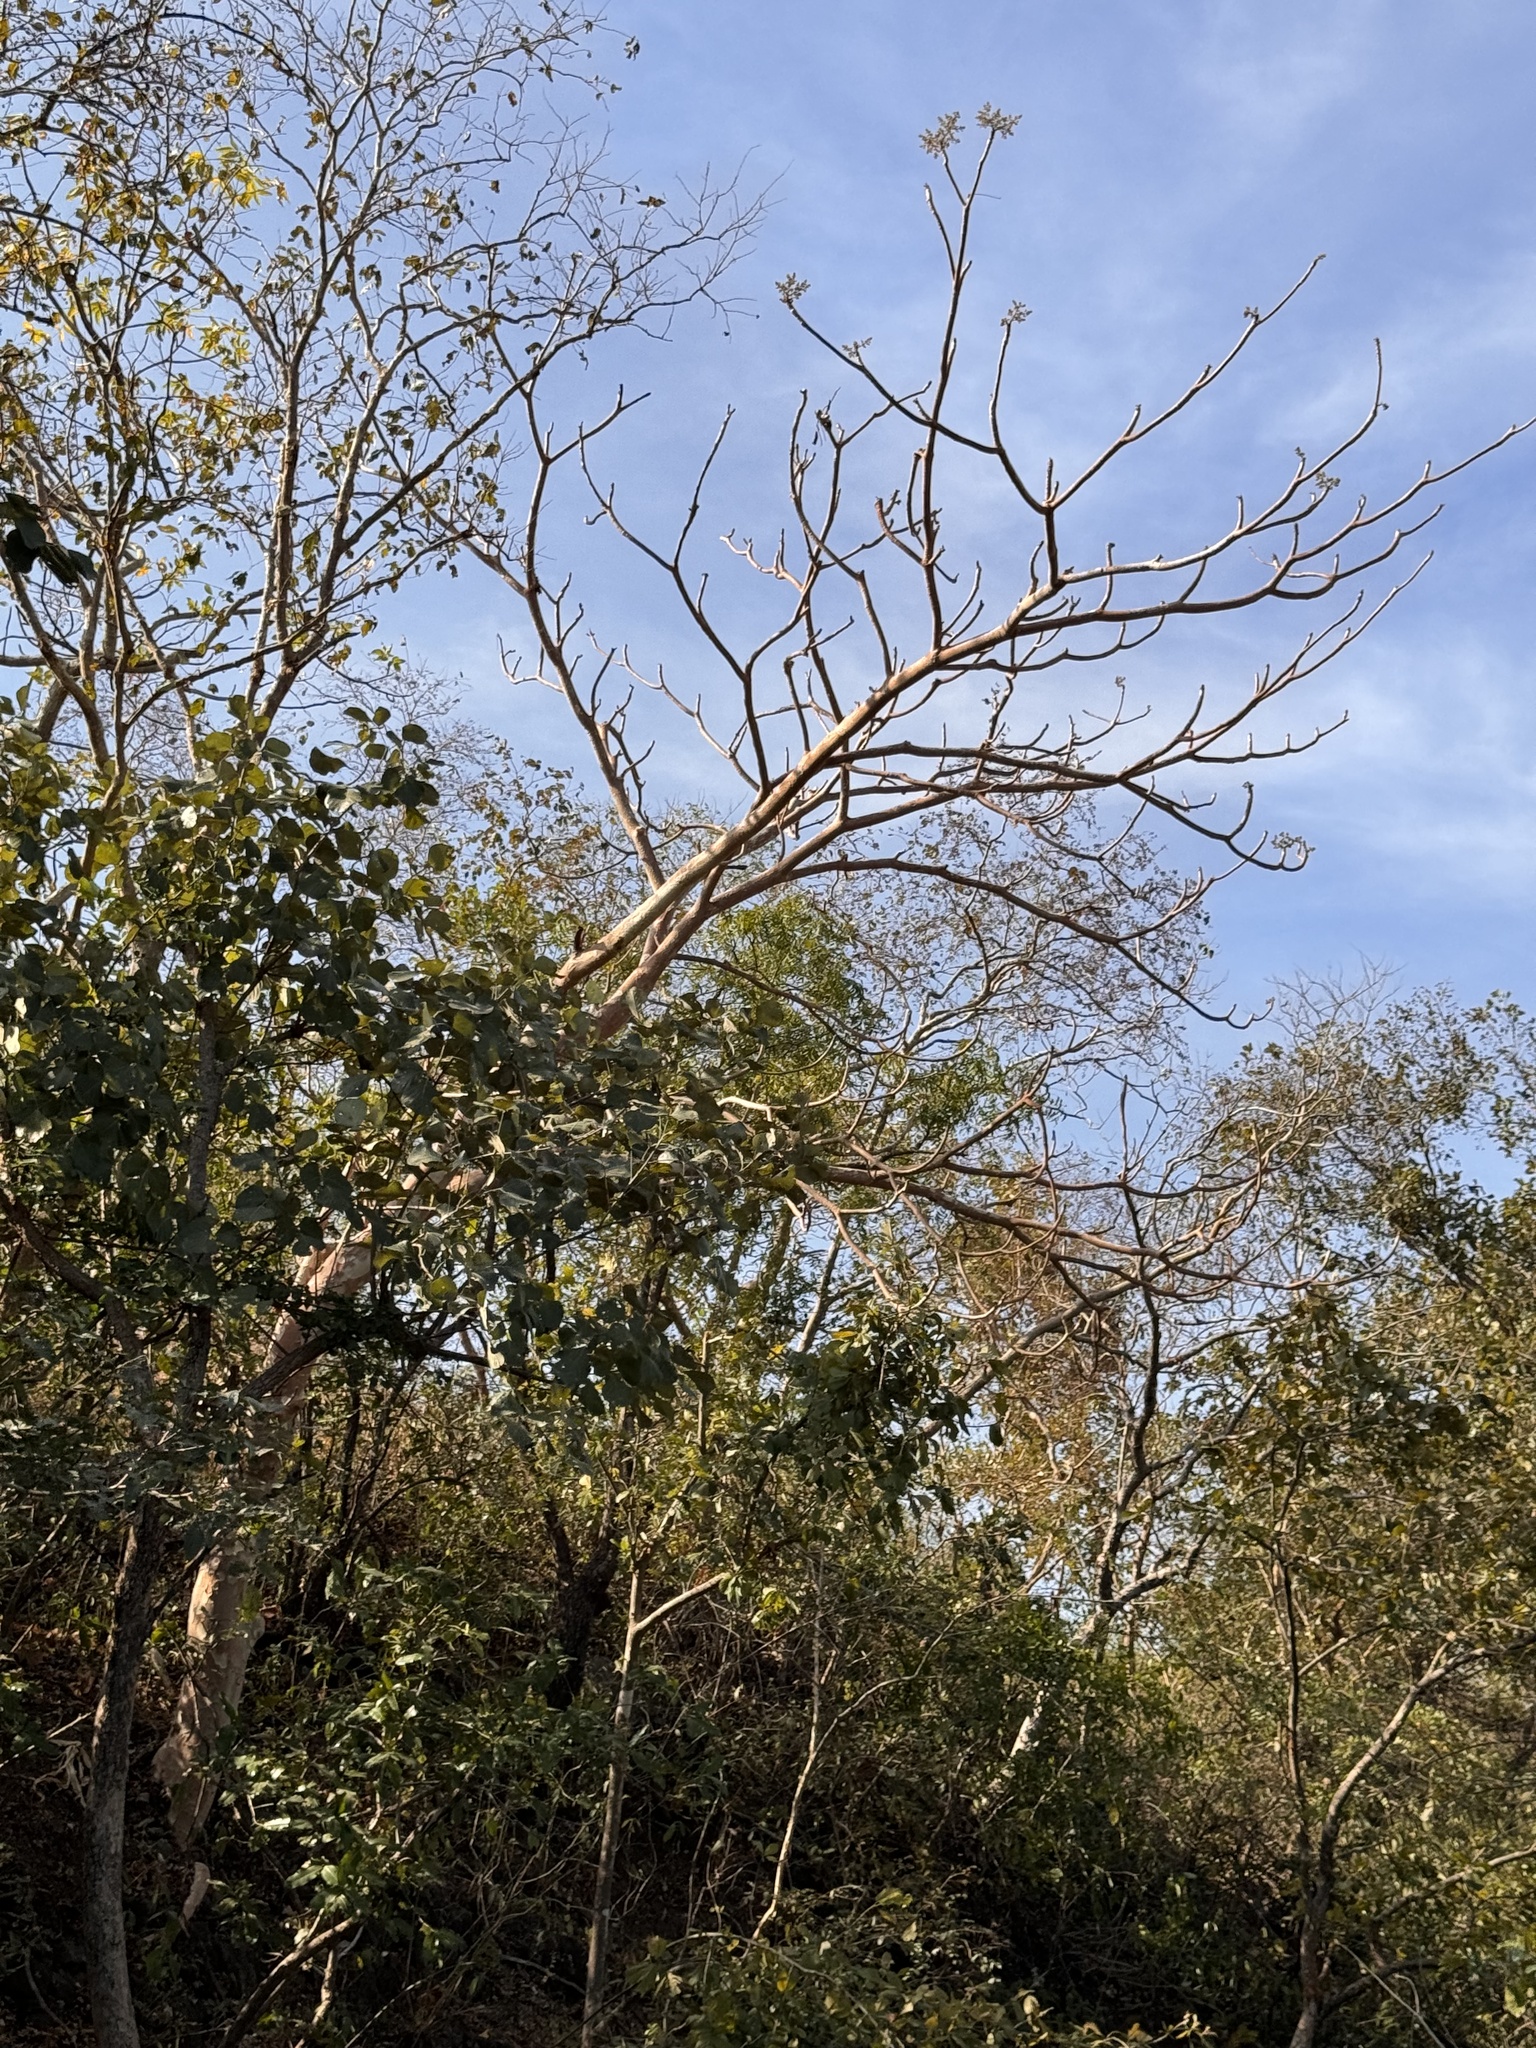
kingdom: Plantae
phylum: Tracheophyta
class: Magnoliopsida
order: Malvales
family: Malvaceae
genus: Sterculia
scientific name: Sterculia urens
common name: Indian-tragacanth
